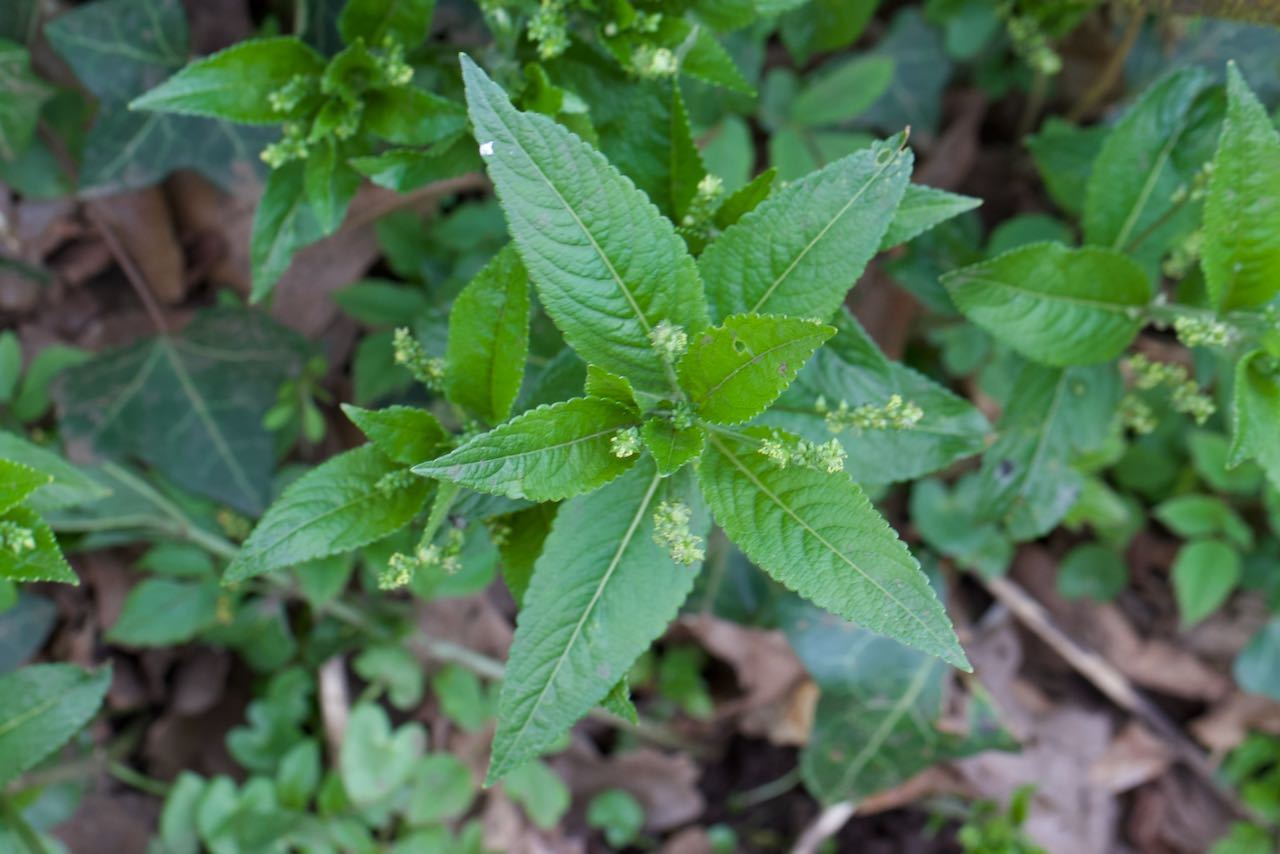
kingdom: Plantae
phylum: Tracheophyta
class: Magnoliopsida
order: Malpighiales
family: Euphorbiaceae
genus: Mercurialis
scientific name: Mercurialis perennis
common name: Dog mercury
